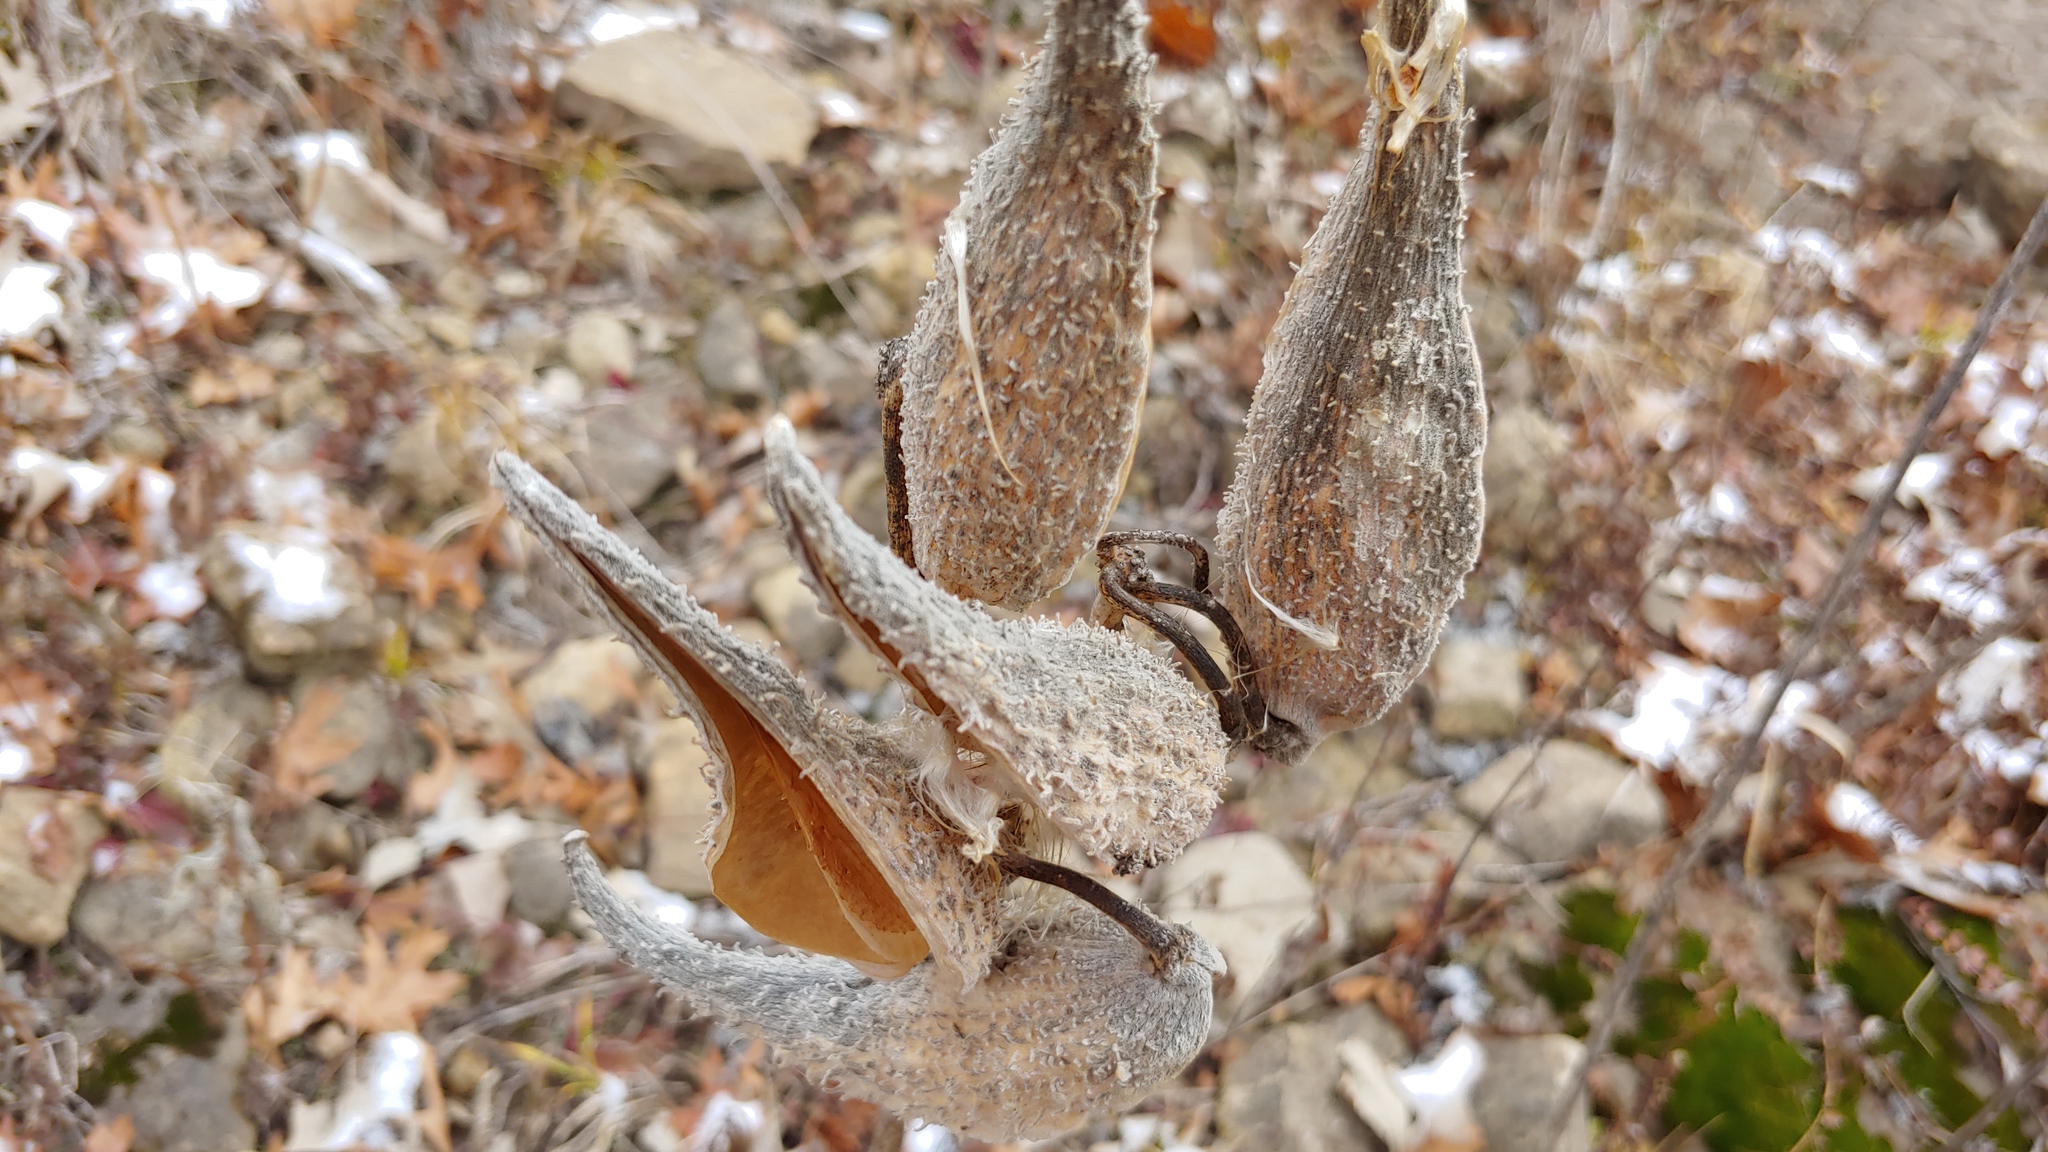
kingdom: Plantae
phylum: Tracheophyta
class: Magnoliopsida
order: Gentianales
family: Apocynaceae
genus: Asclepias
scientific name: Asclepias syriaca
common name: Common milkweed
